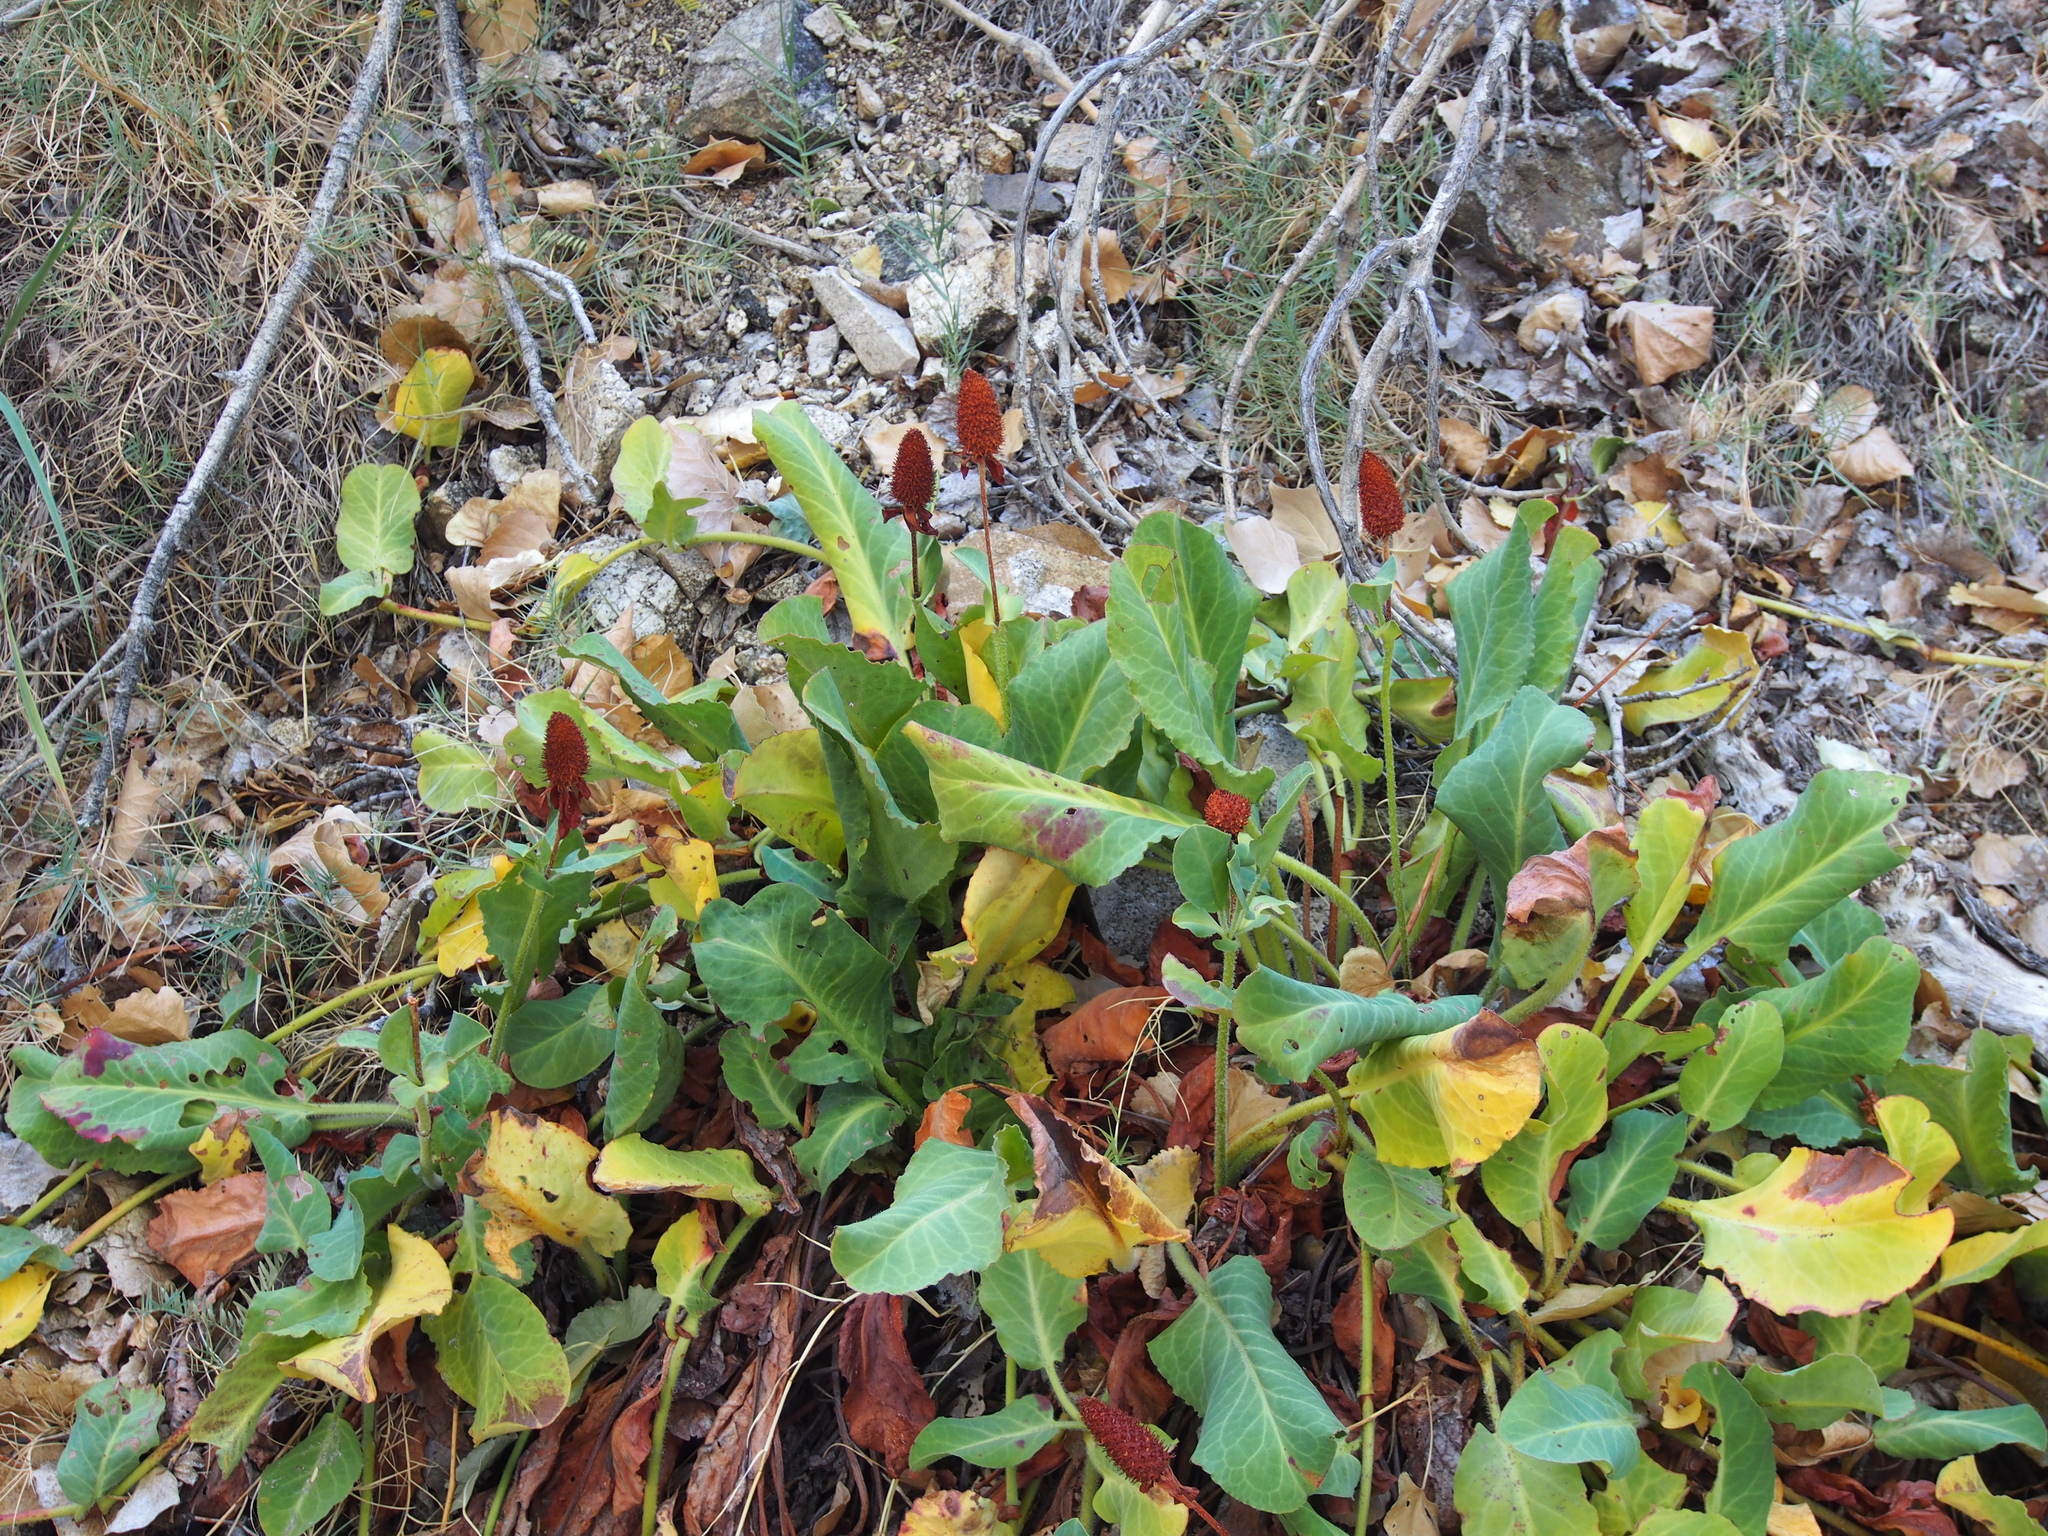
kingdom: Plantae
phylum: Tracheophyta
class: Magnoliopsida
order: Piperales
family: Saururaceae
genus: Anemopsis
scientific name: Anemopsis californica
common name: Apache-beads
